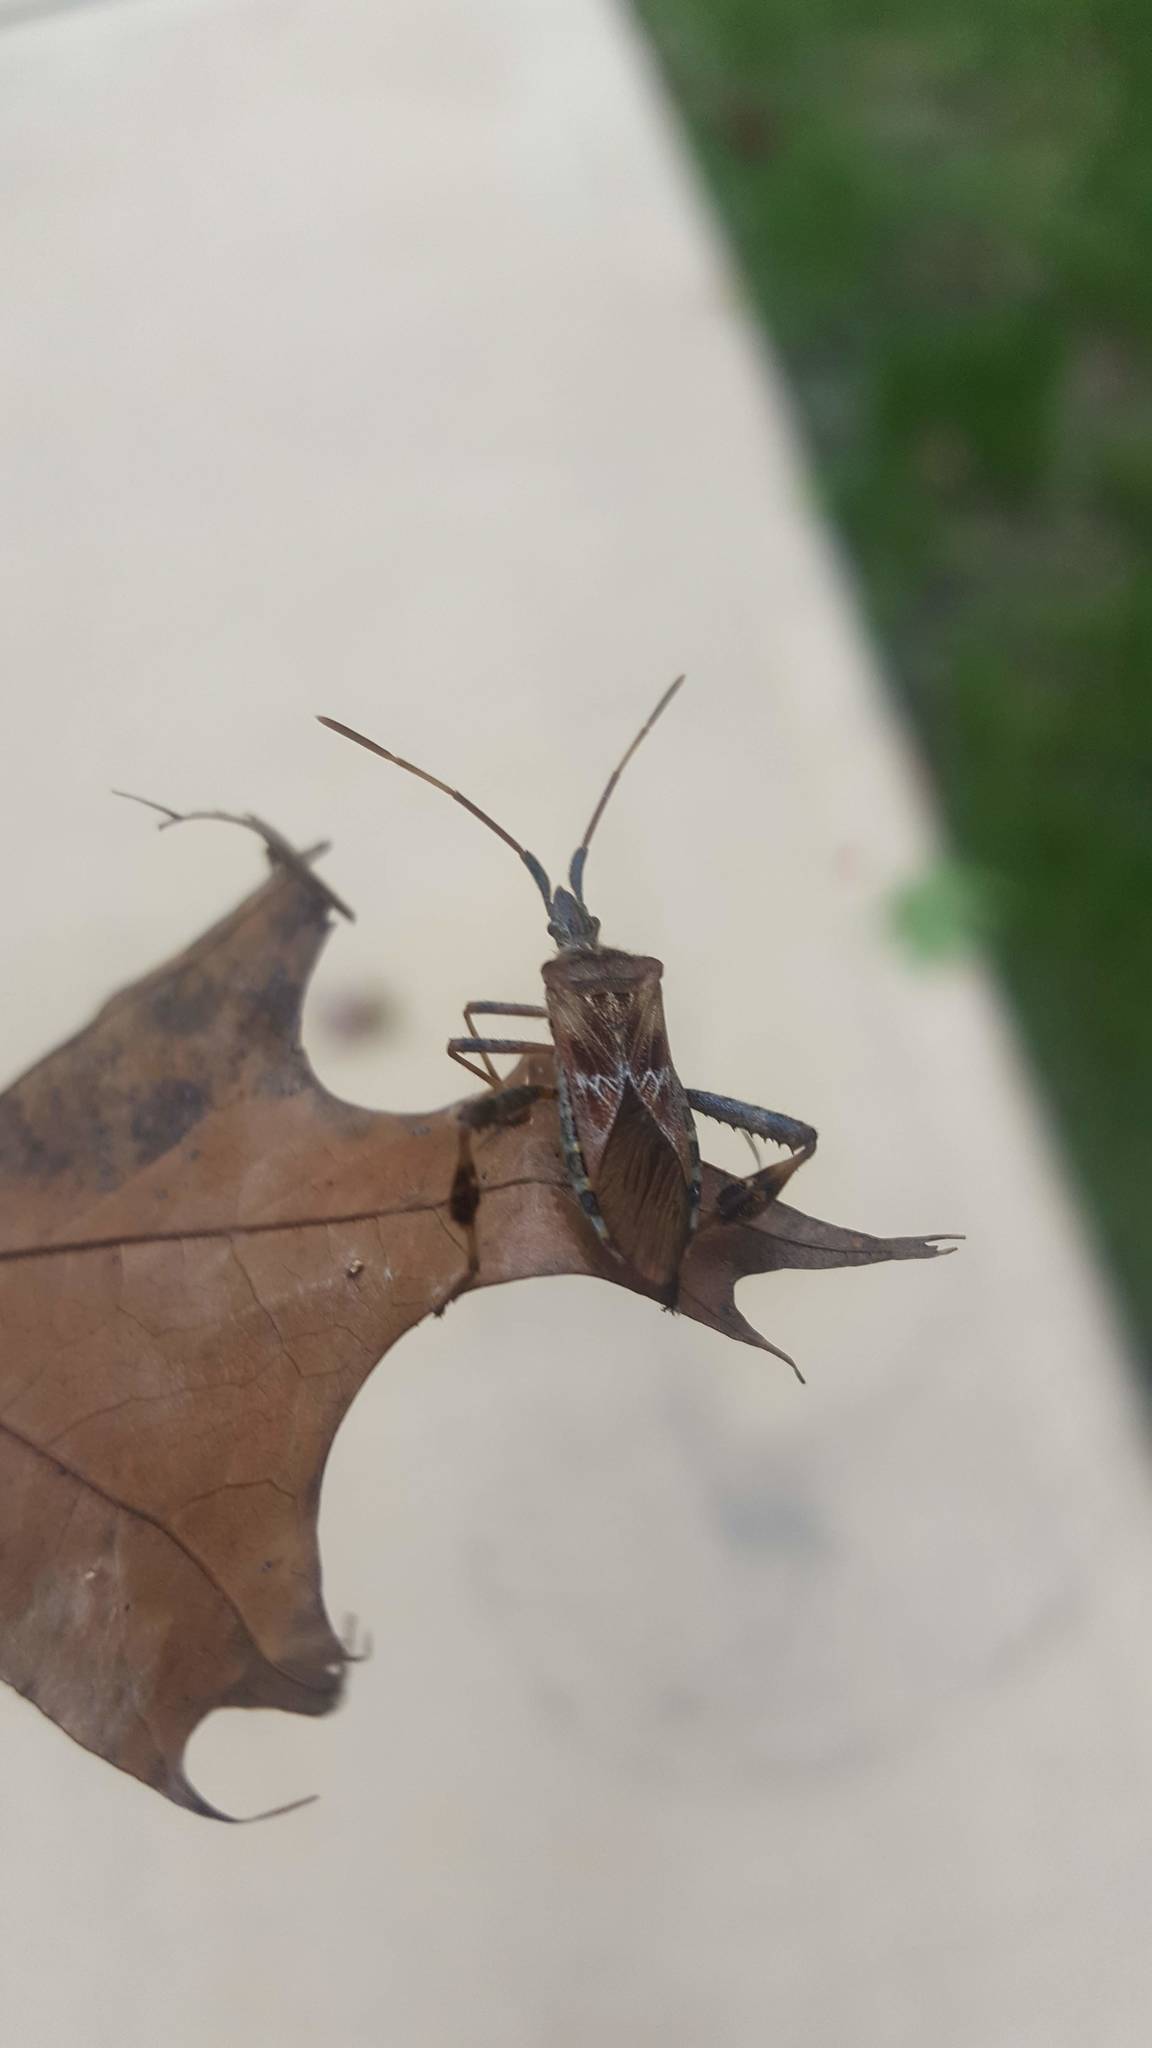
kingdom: Animalia
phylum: Arthropoda
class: Insecta
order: Hemiptera
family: Coreidae
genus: Leptoglossus
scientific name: Leptoglossus occidentalis
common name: Western conifer-seed bug
